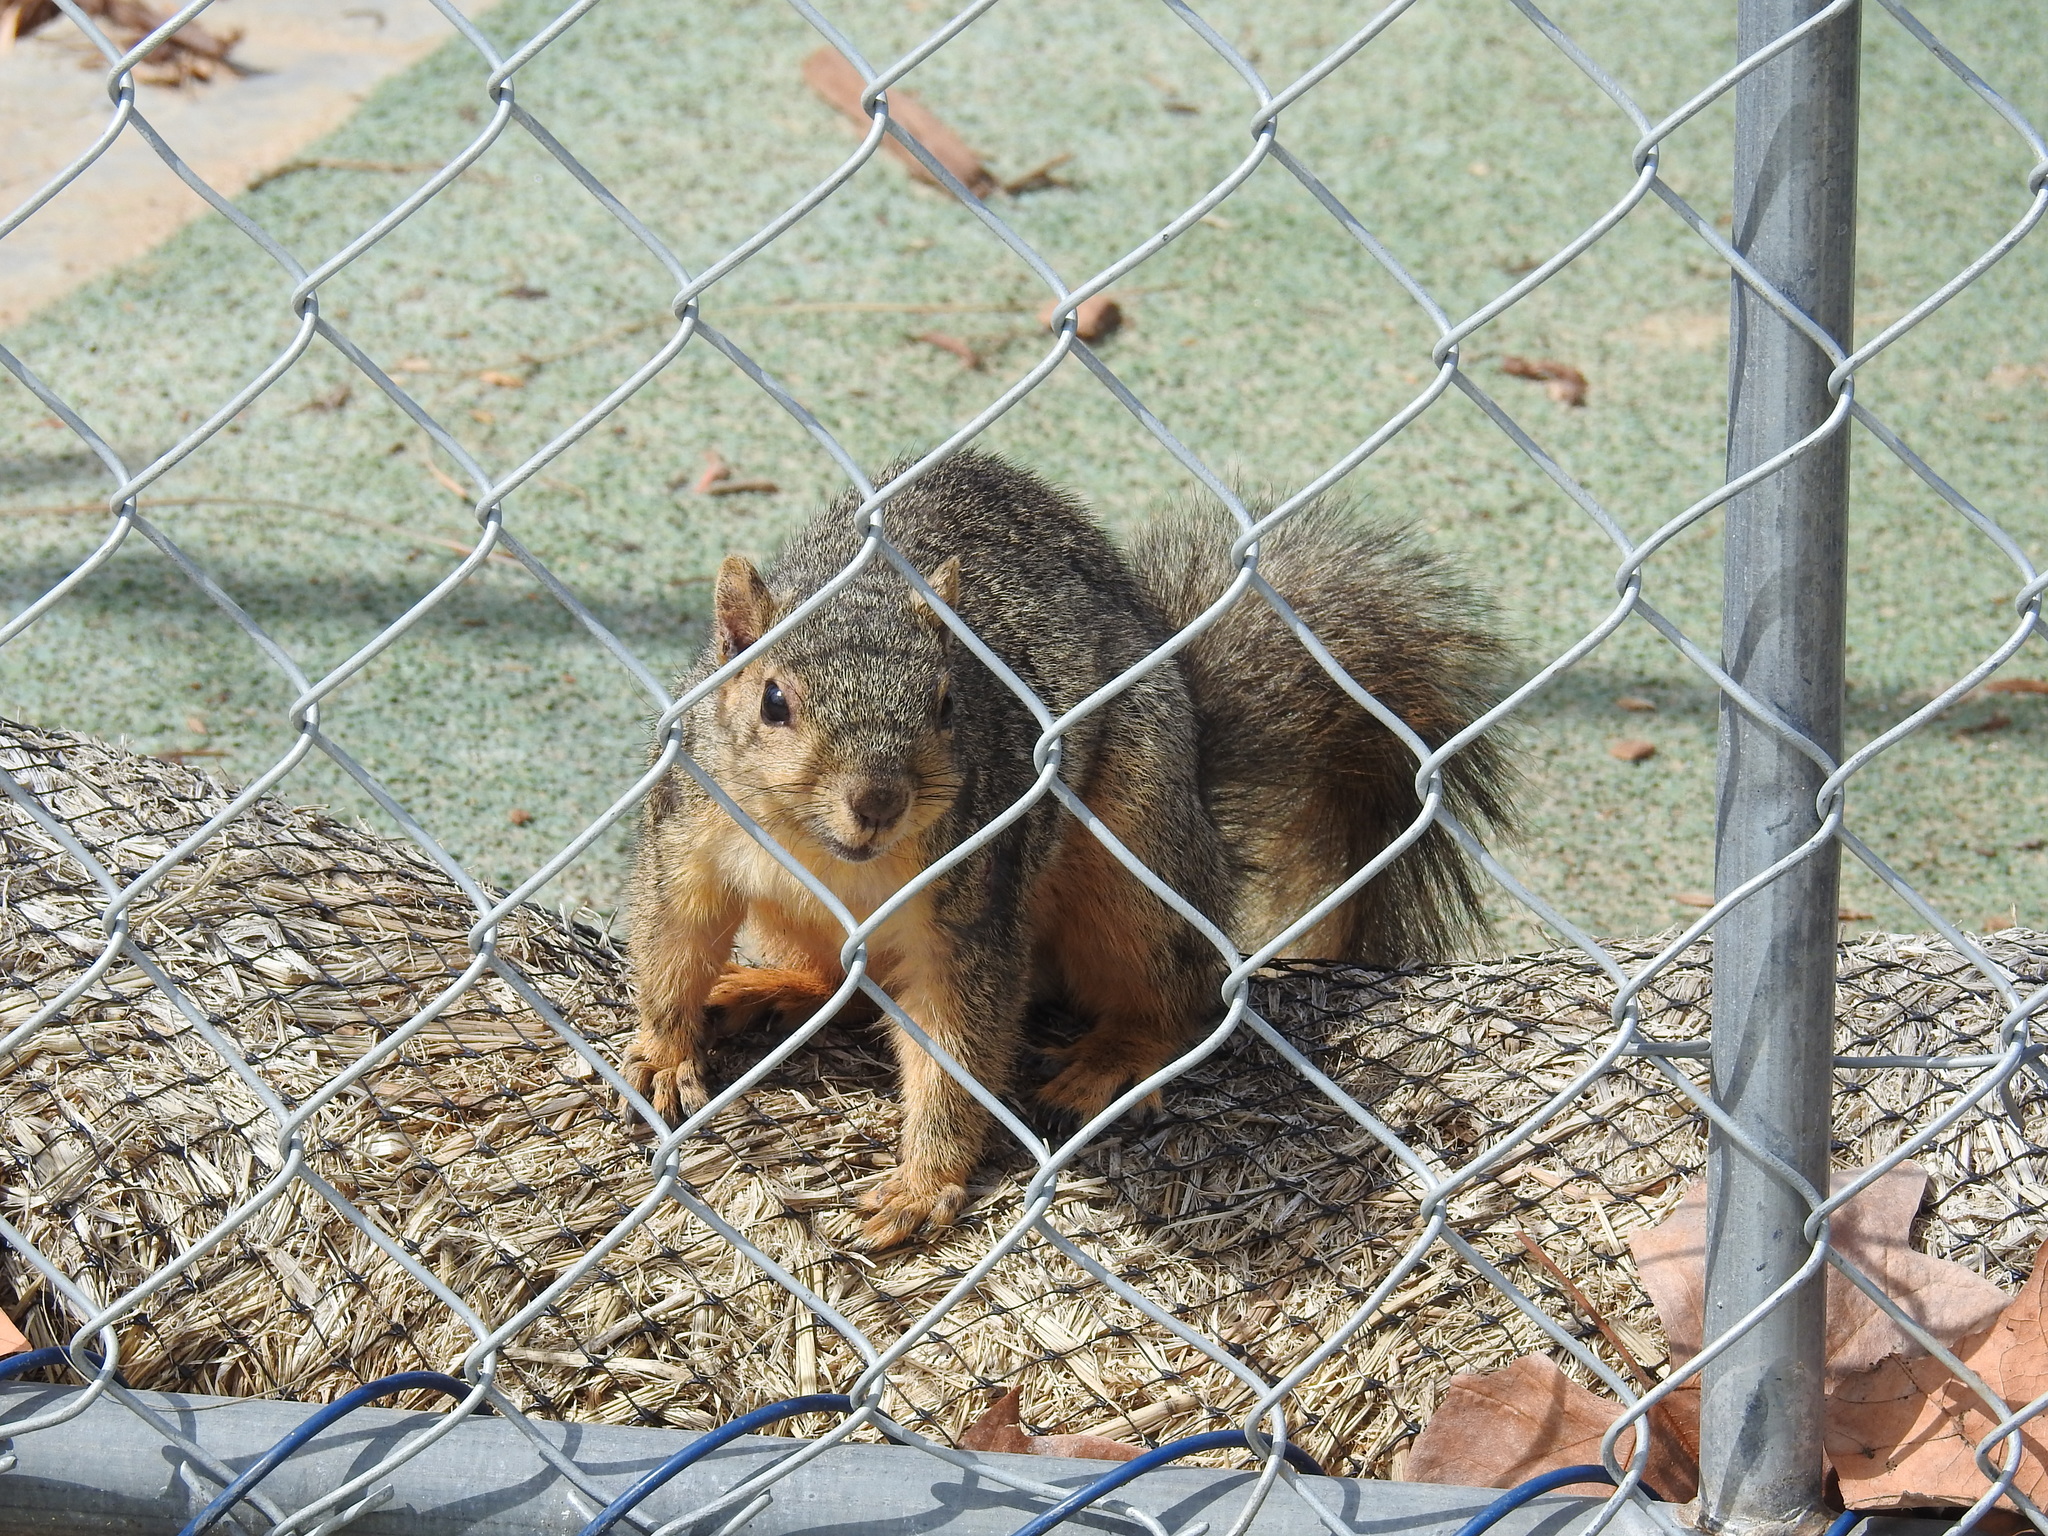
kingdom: Animalia
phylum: Chordata
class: Mammalia
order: Rodentia
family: Sciuridae
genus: Sciurus
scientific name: Sciurus niger
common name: Fox squirrel
